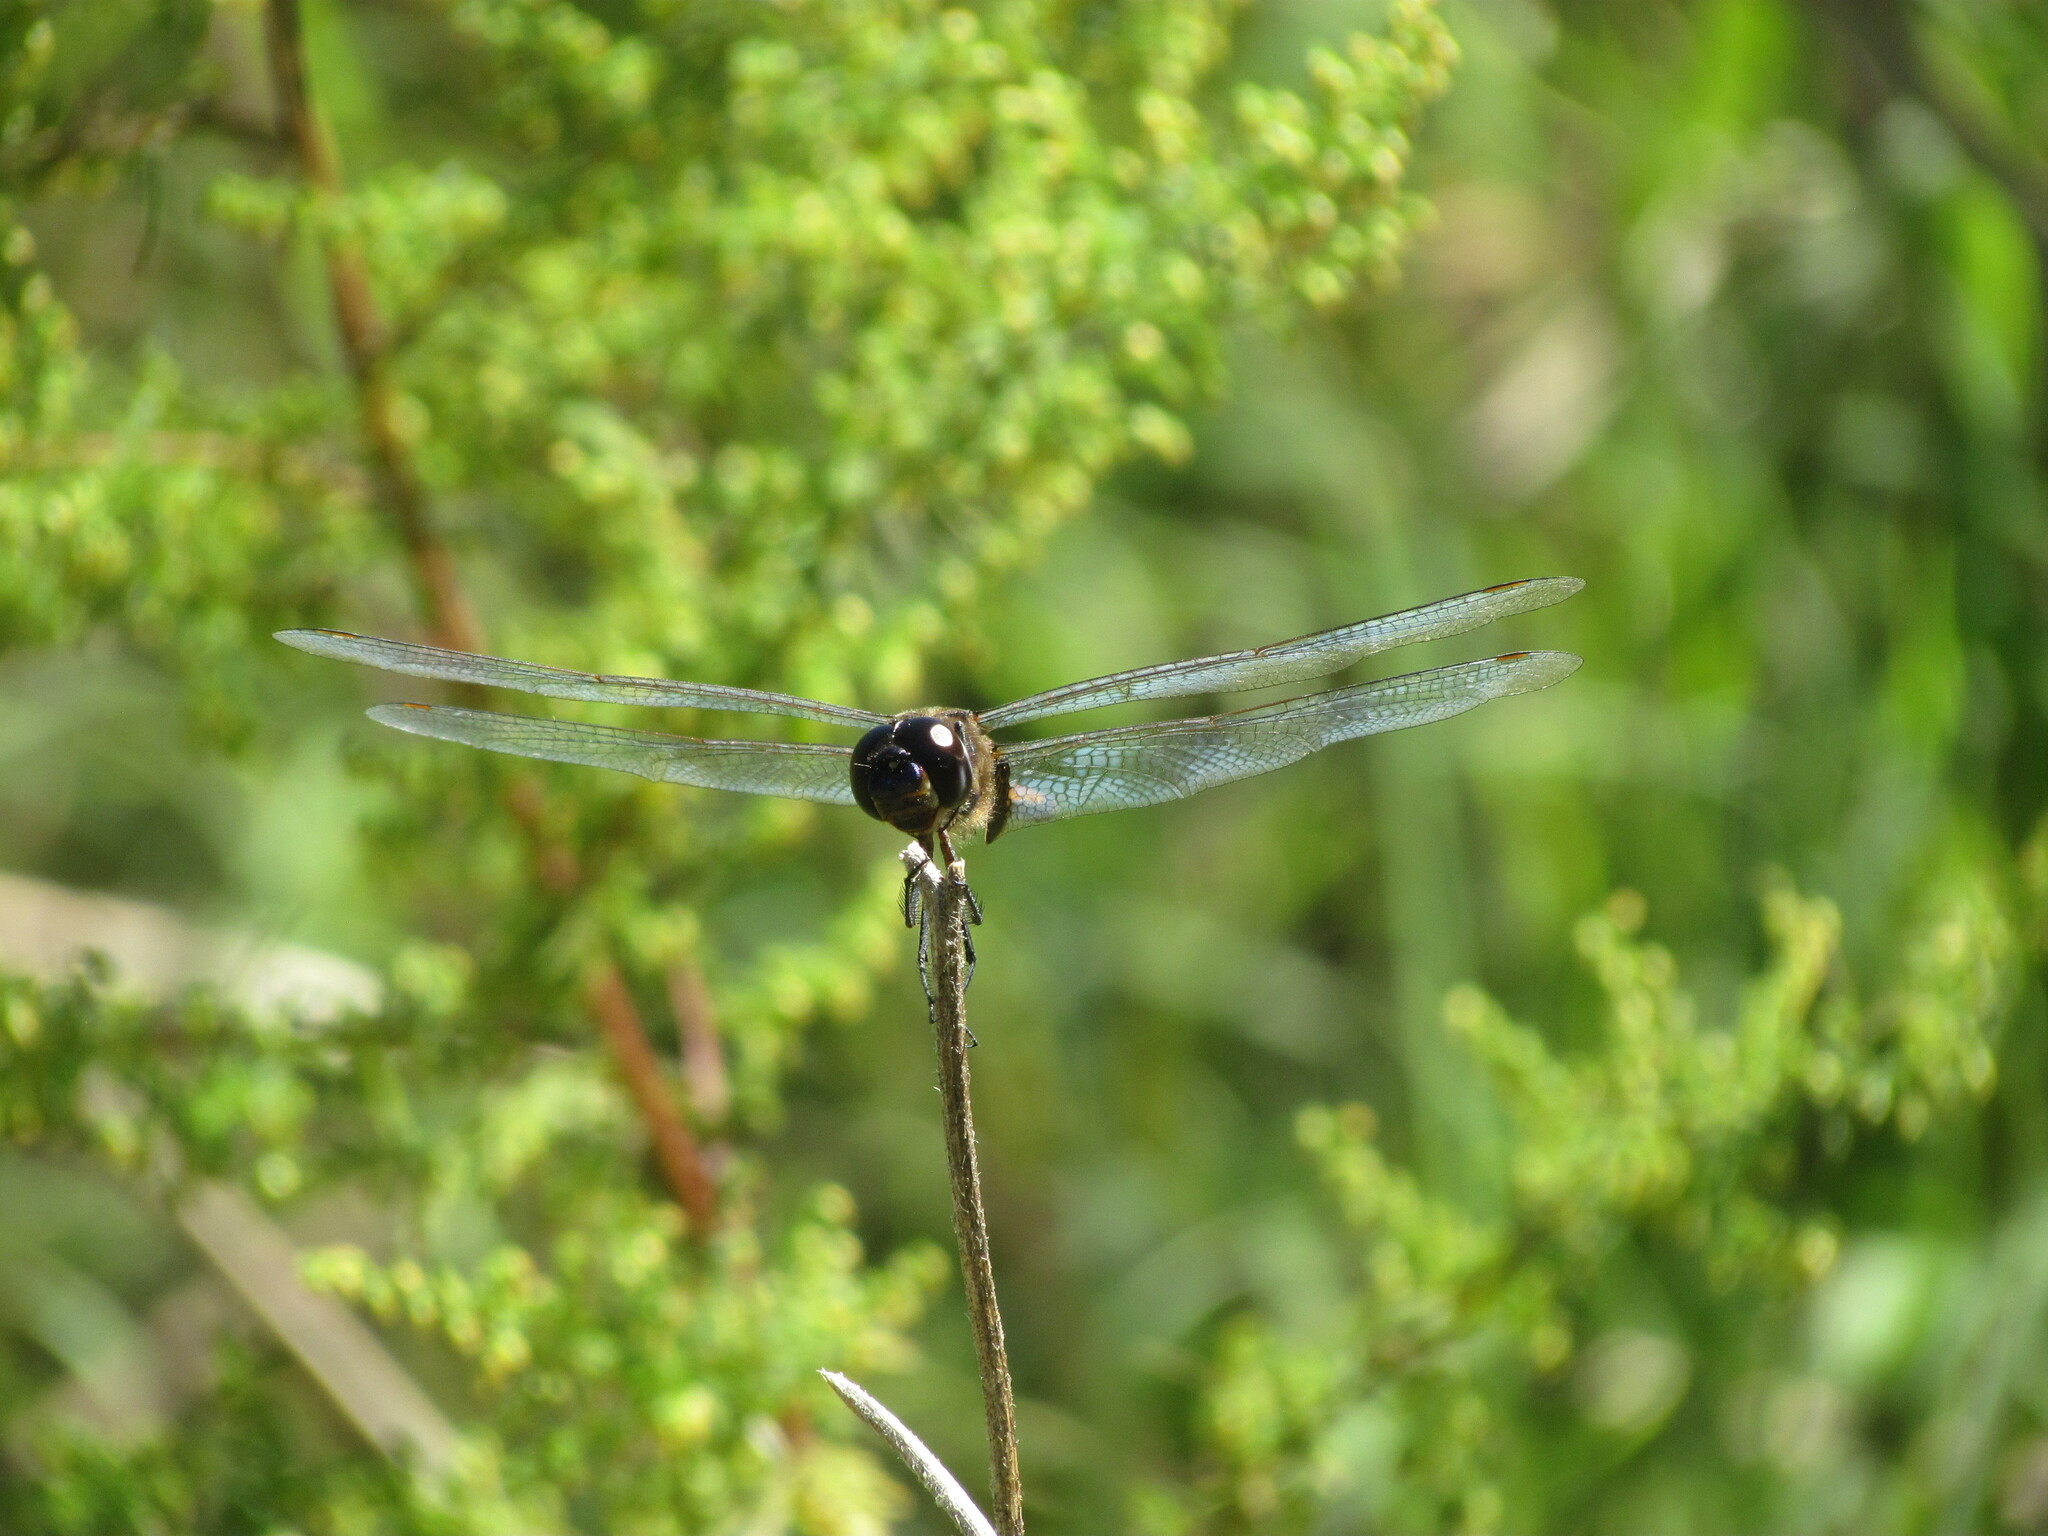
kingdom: Animalia
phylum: Arthropoda
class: Insecta
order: Odonata
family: Libellulidae
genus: Tramea
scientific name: Tramea cophysa
